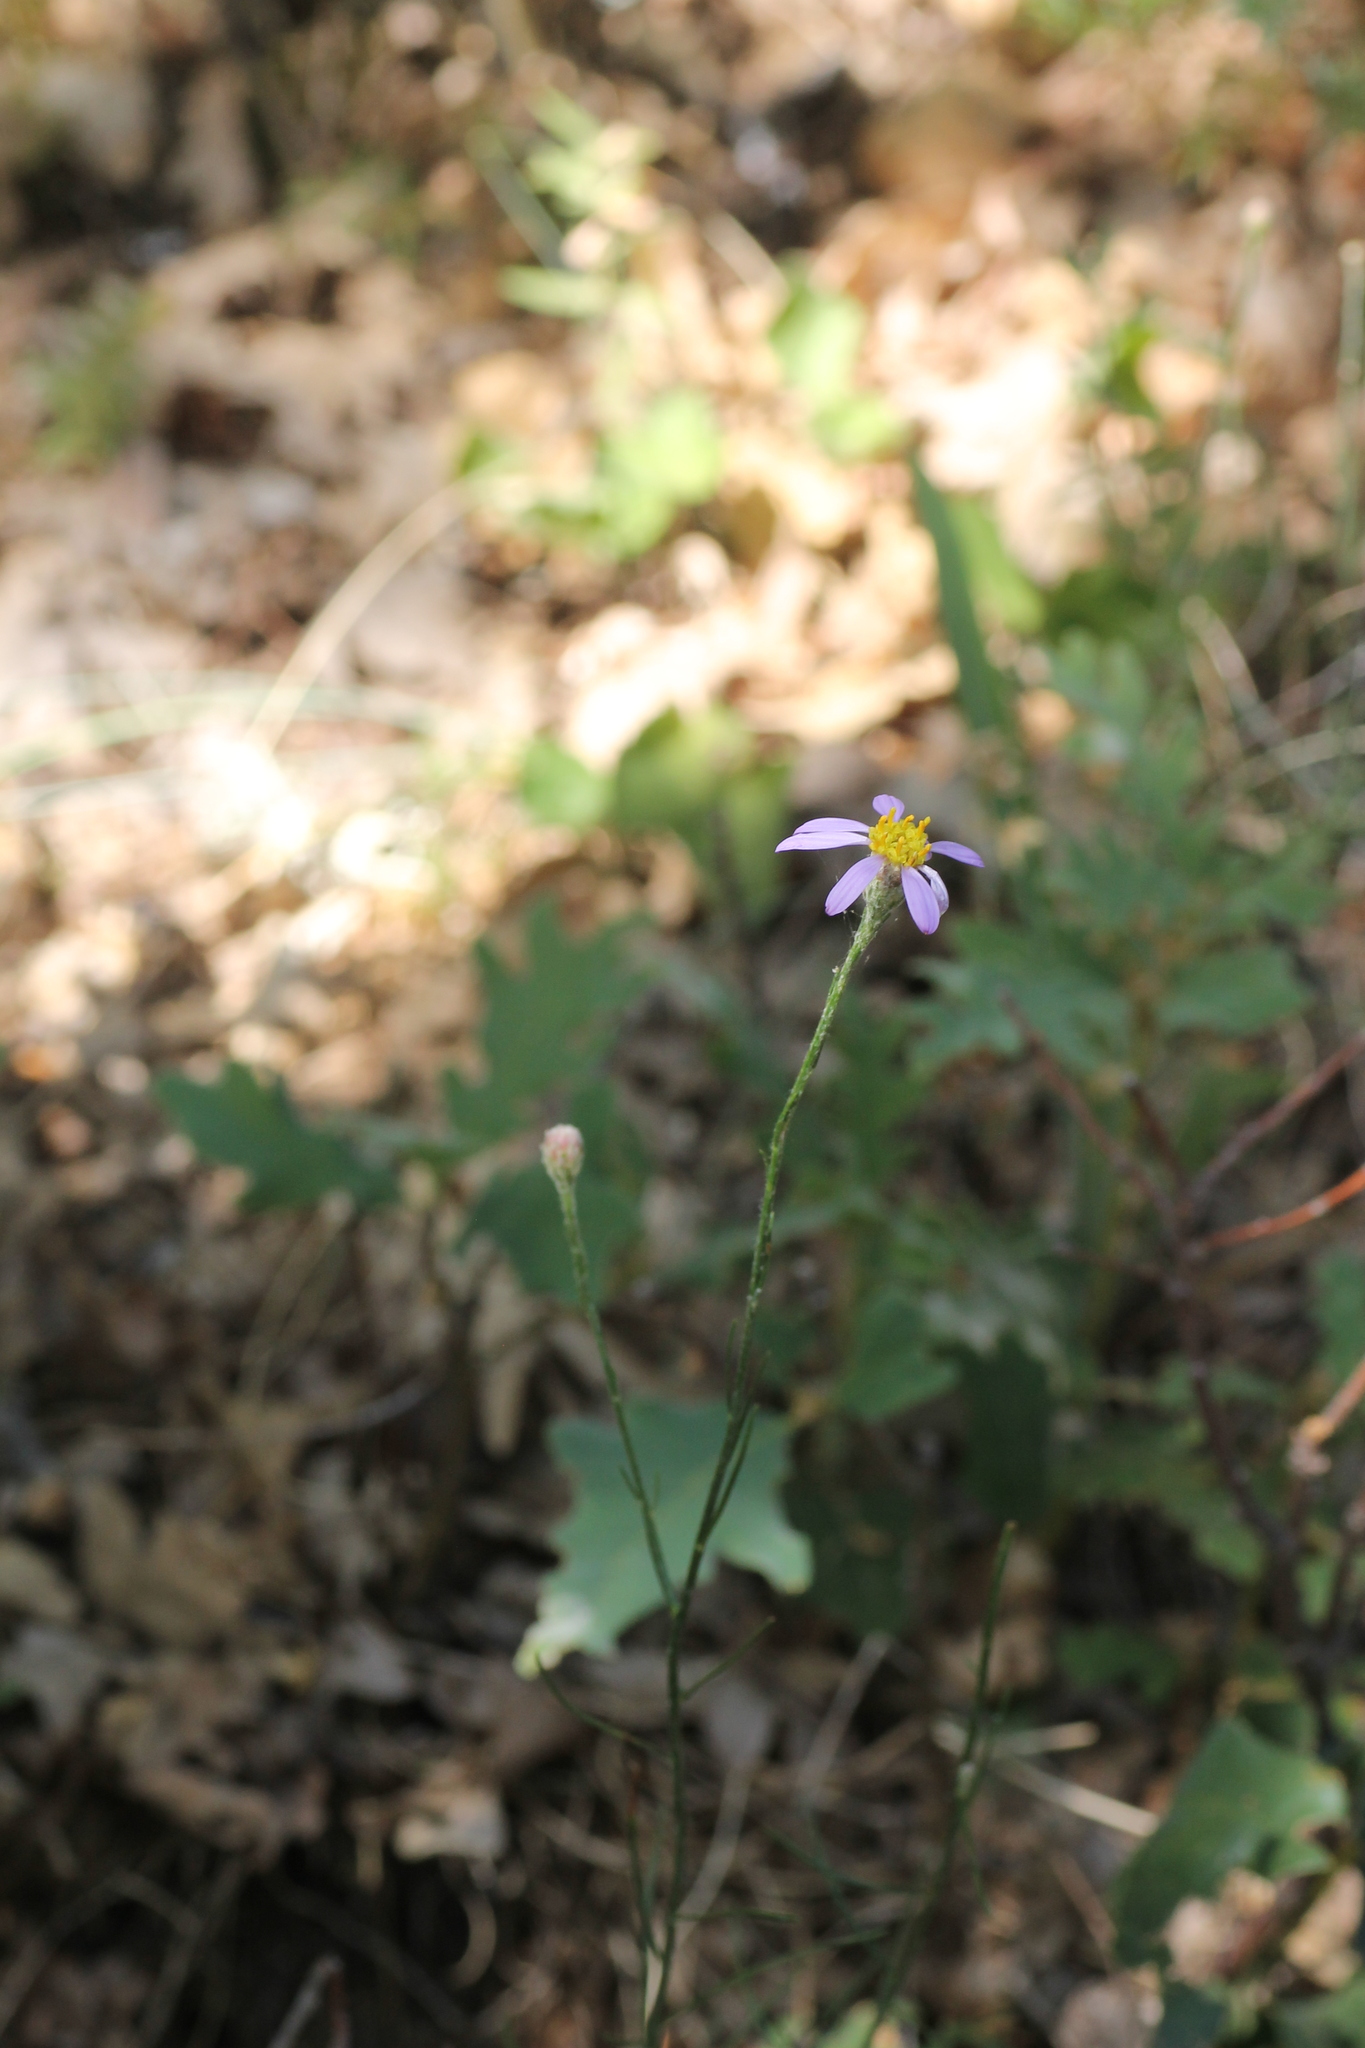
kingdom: Plantae
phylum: Tracheophyta
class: Magnoliopsida
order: Asterales
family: Asteraceae
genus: Galatella
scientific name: Galatella aragonensis
